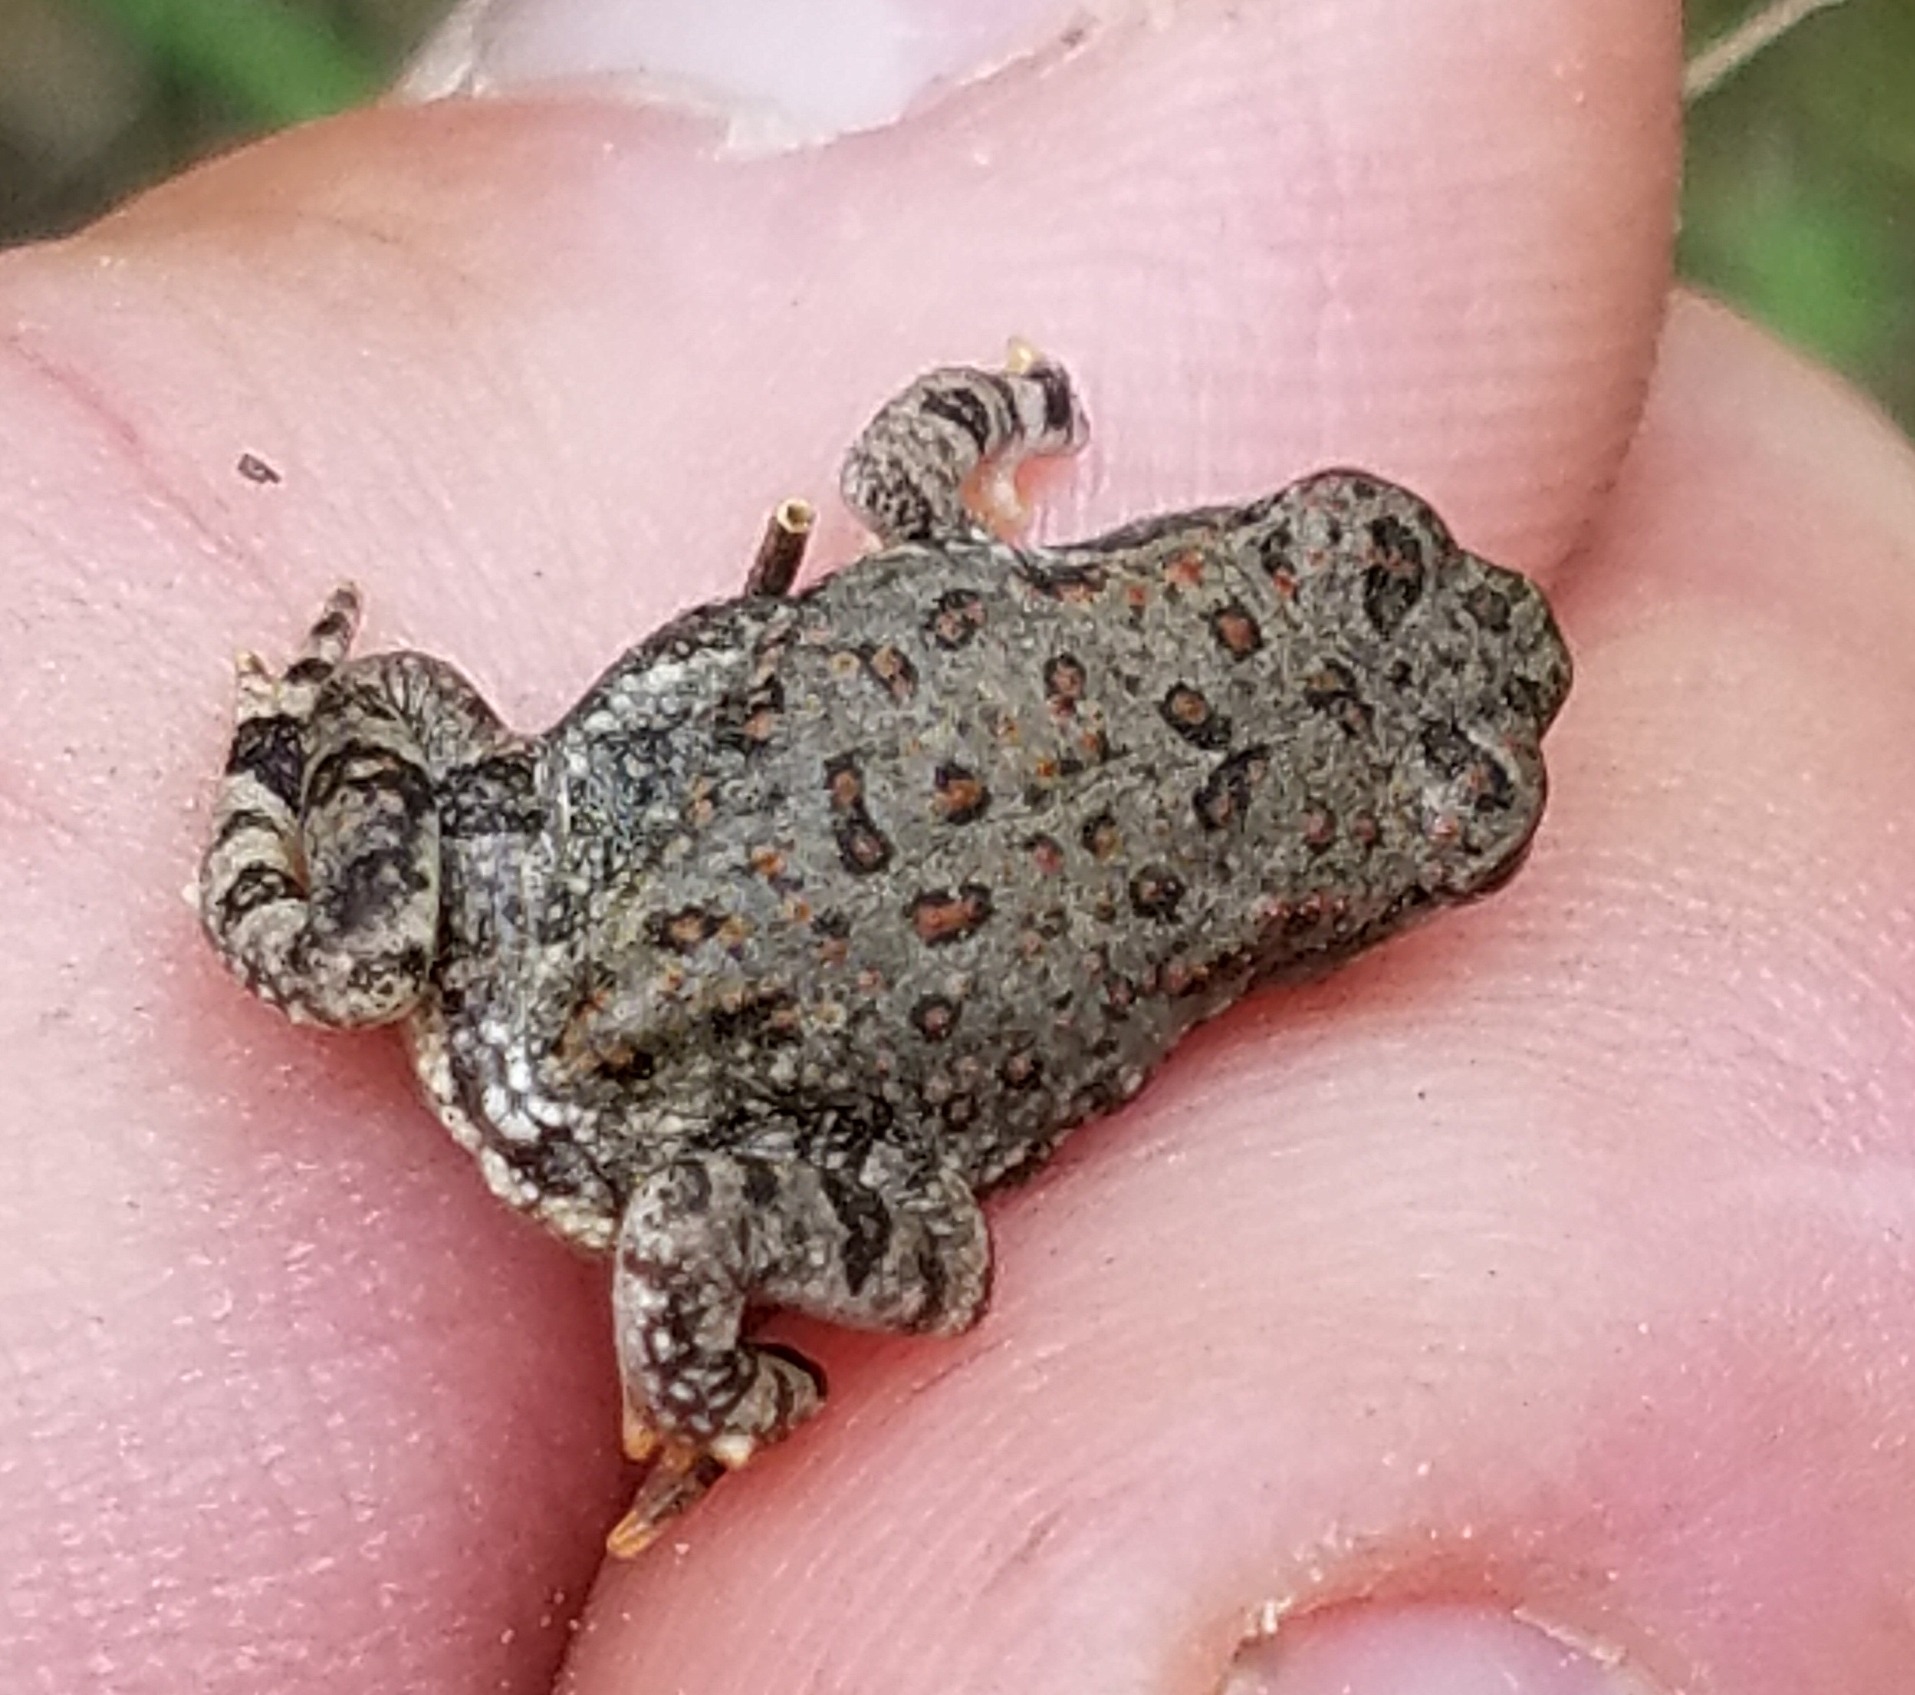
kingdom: Animalia
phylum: Chordata
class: Amphibia
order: Anura
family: Bufonidae
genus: Anaxyrus
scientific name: Anaxyrus woodhousii
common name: Woodhouse's toad
